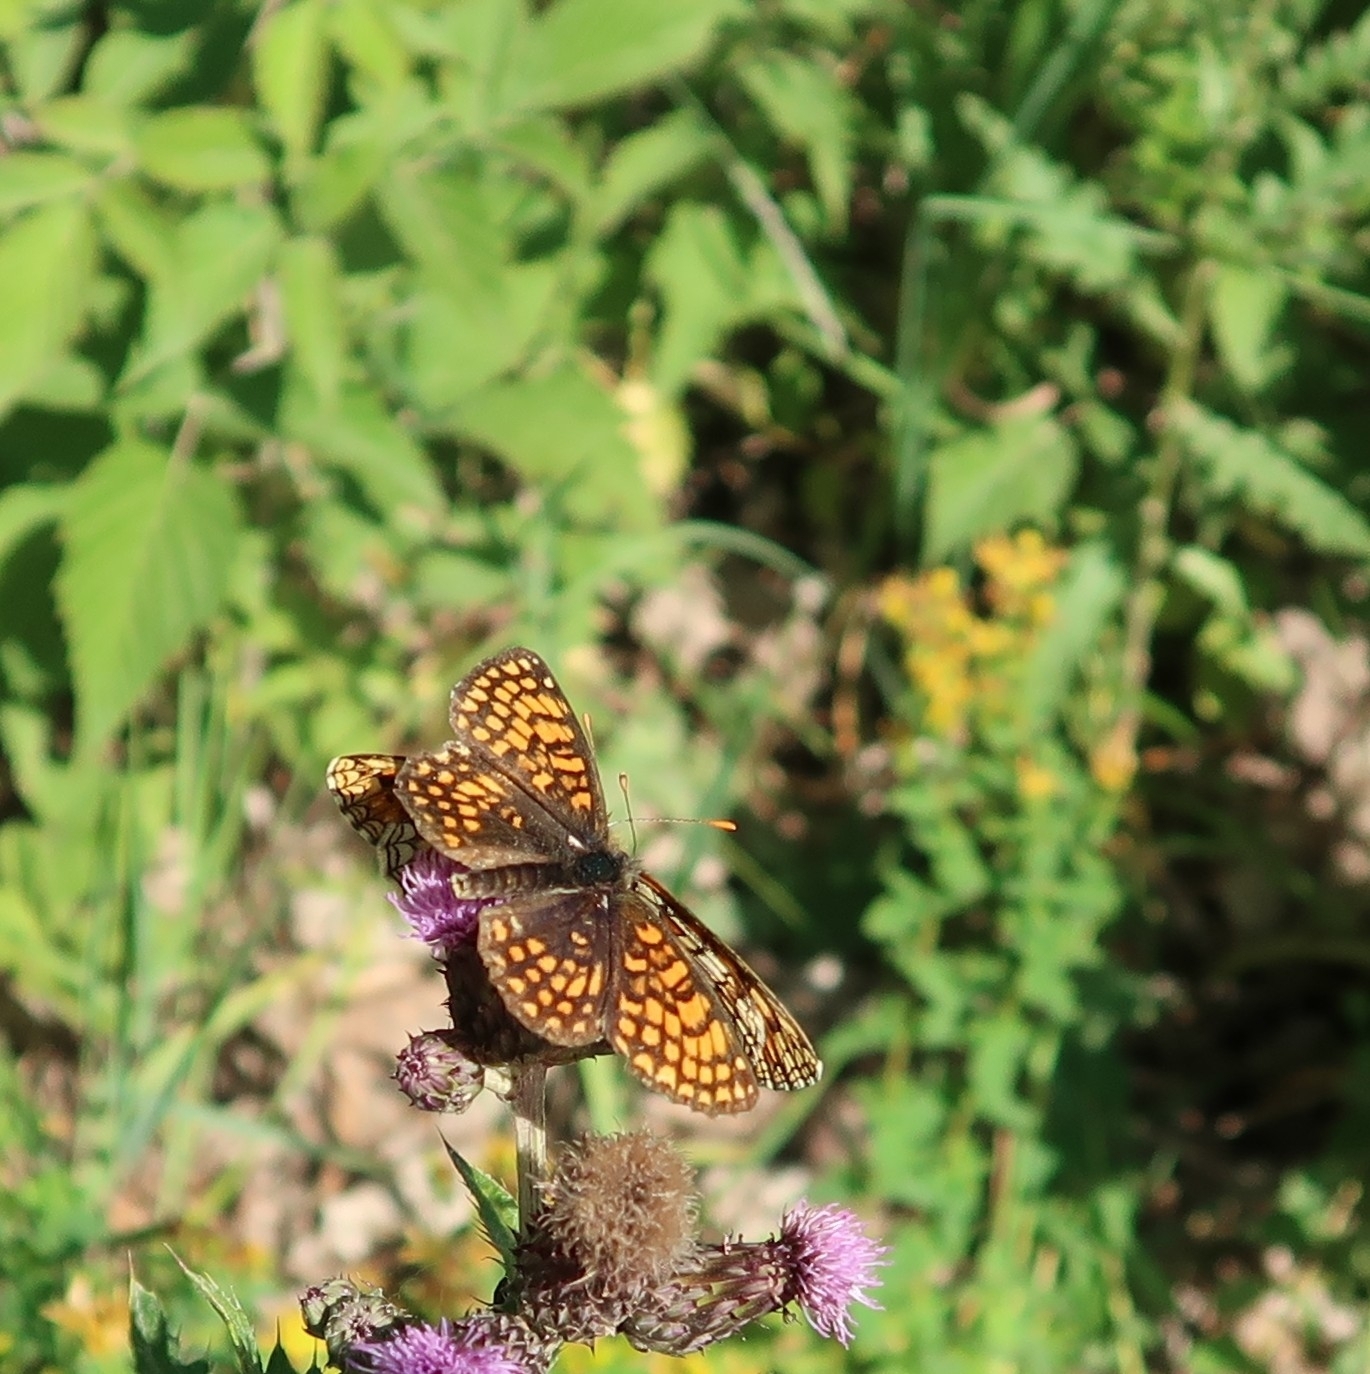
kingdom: Animalia
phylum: Arthropoda
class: Insecta
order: Lepidoptera
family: Nymphalidae
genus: Melitaea
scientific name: Melitaea athalia
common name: Heath fritillary
